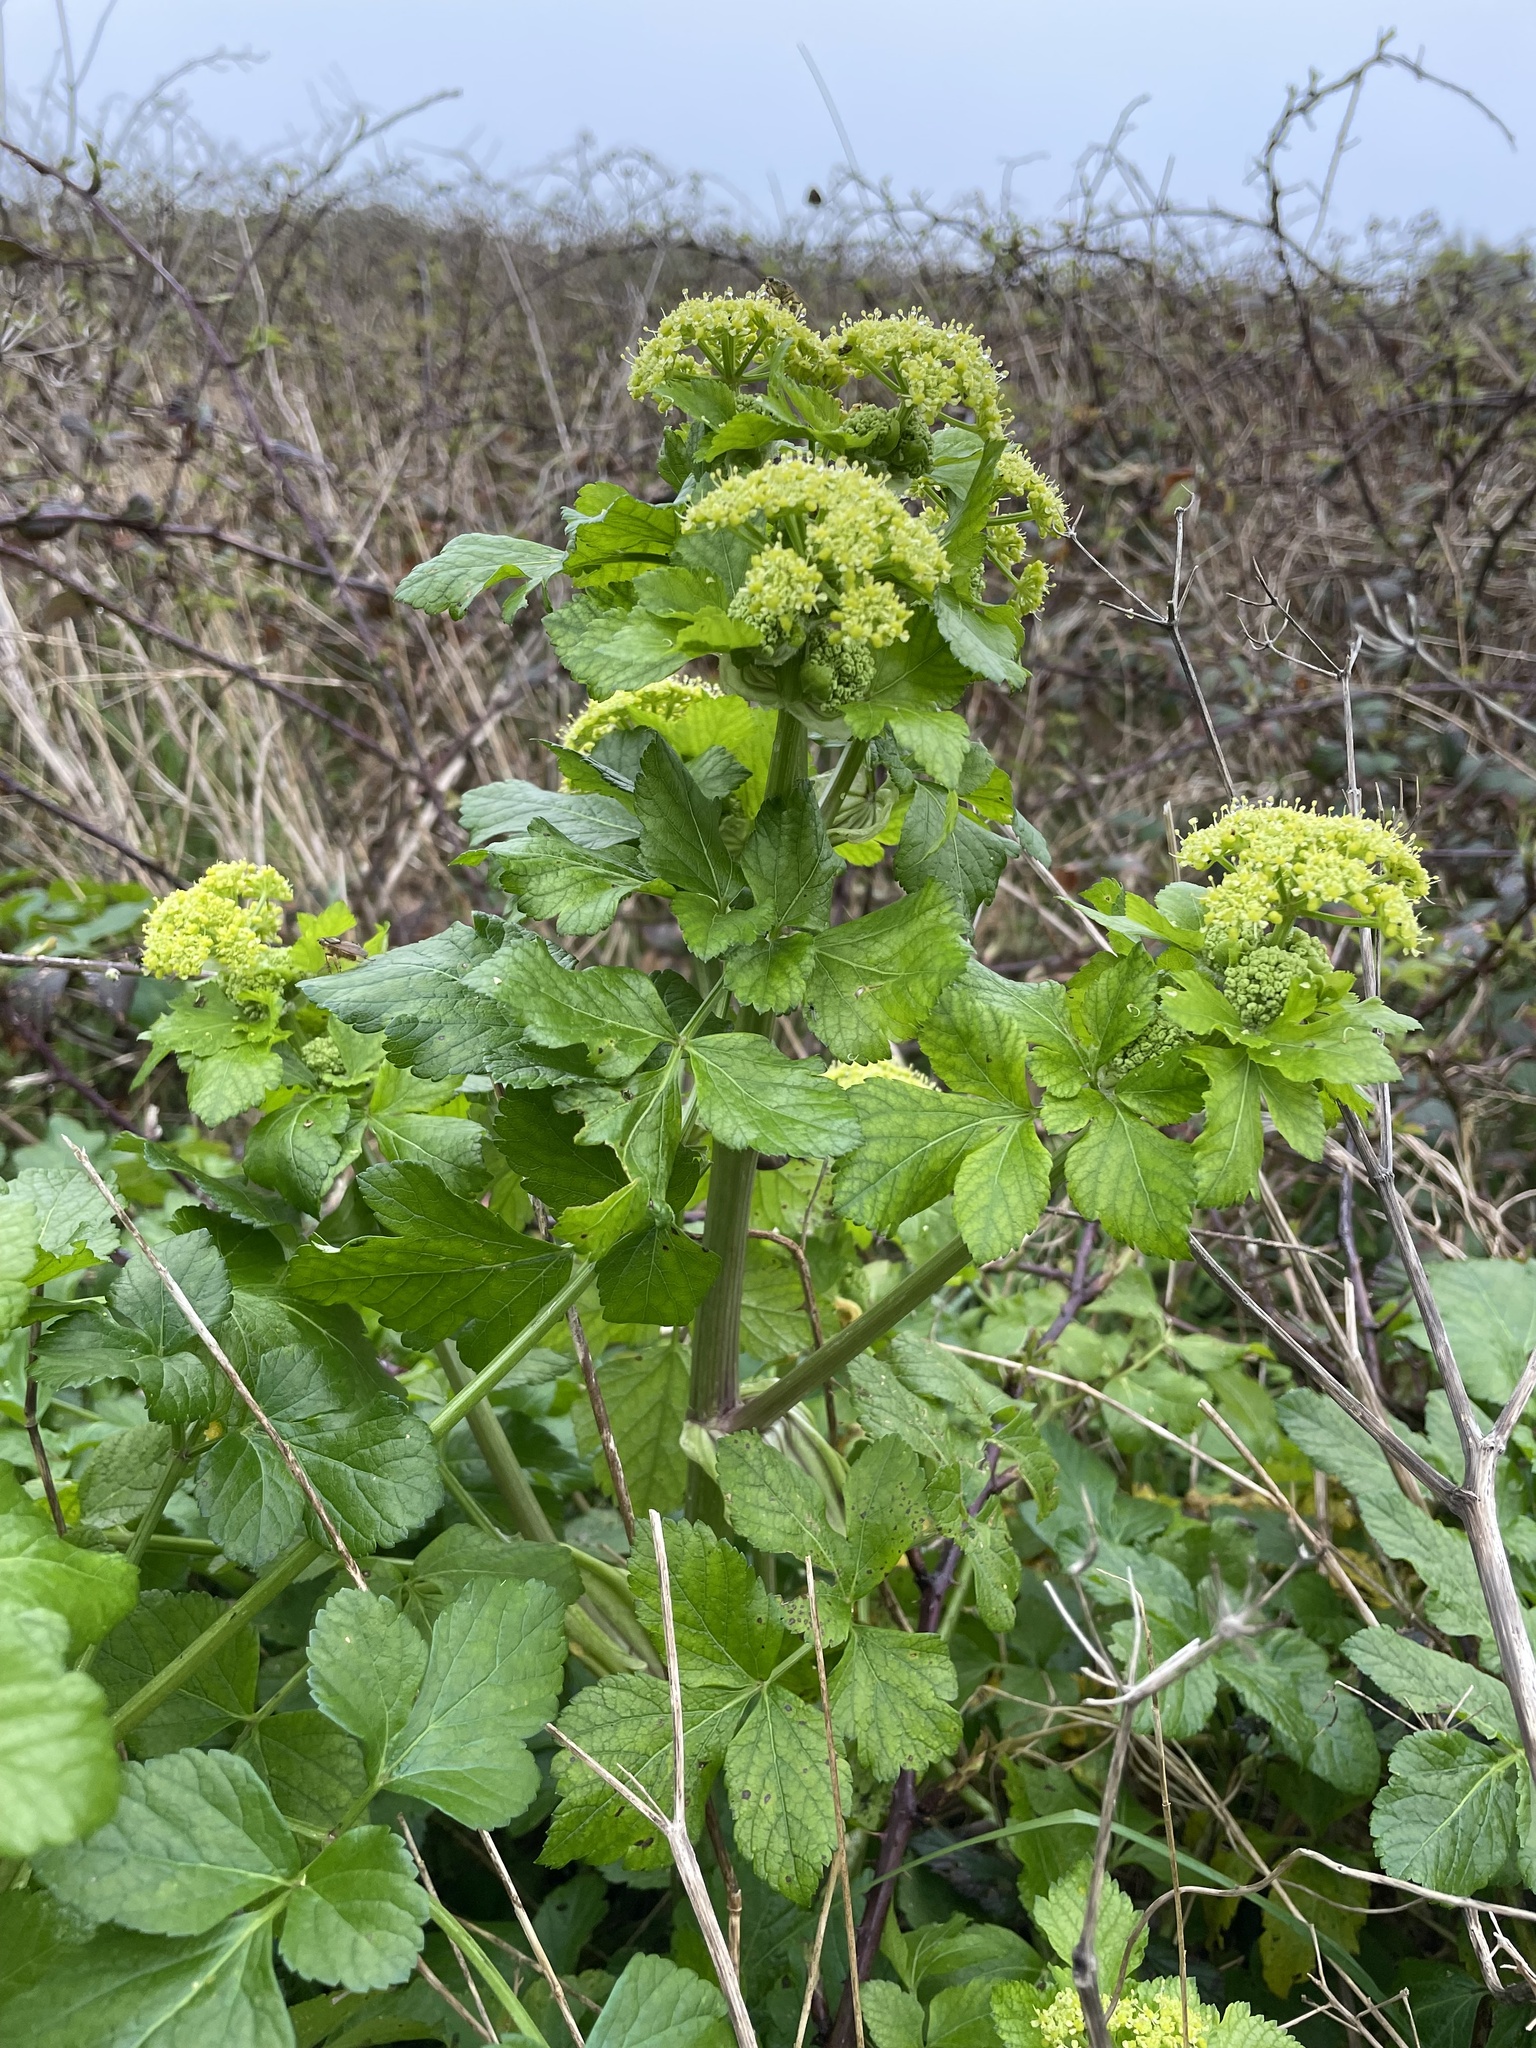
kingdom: Plantae
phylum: Tracheophyta
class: Magnoliopsida
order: Apiales
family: Apiaceae
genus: Smyrnium
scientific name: Smyrnium olusatrum
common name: Alexanders
